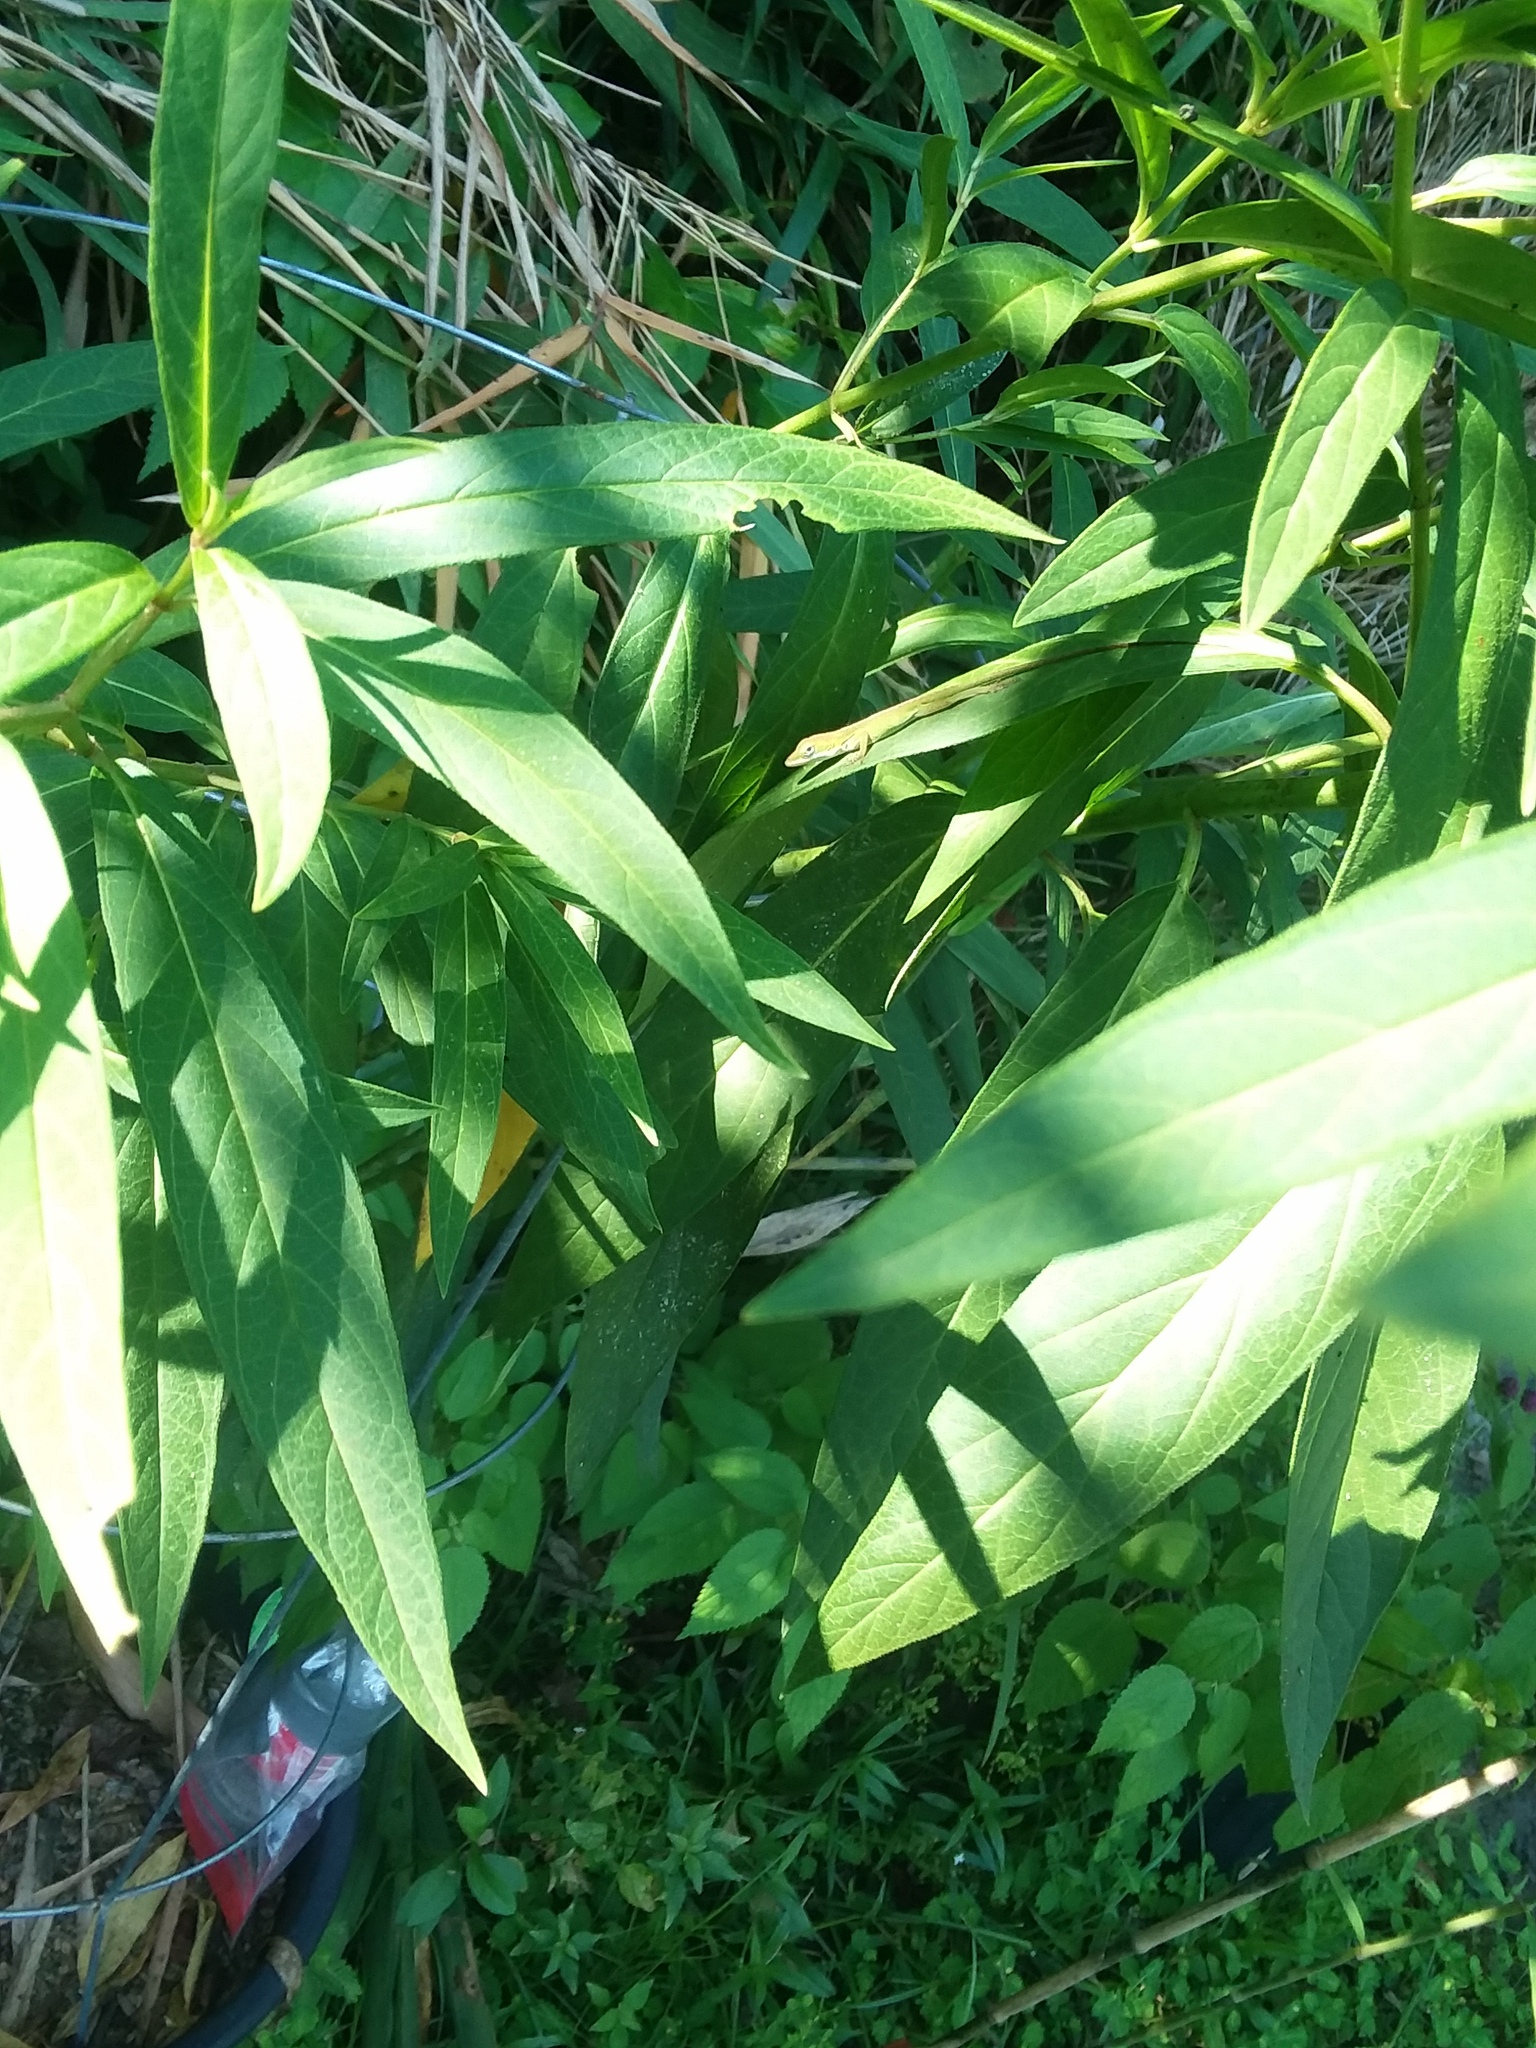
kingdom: Animalia
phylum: Chordata
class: Squamata
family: Dactyloidae
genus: Anolis
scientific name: Anolis carolinensis
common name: Green anole
